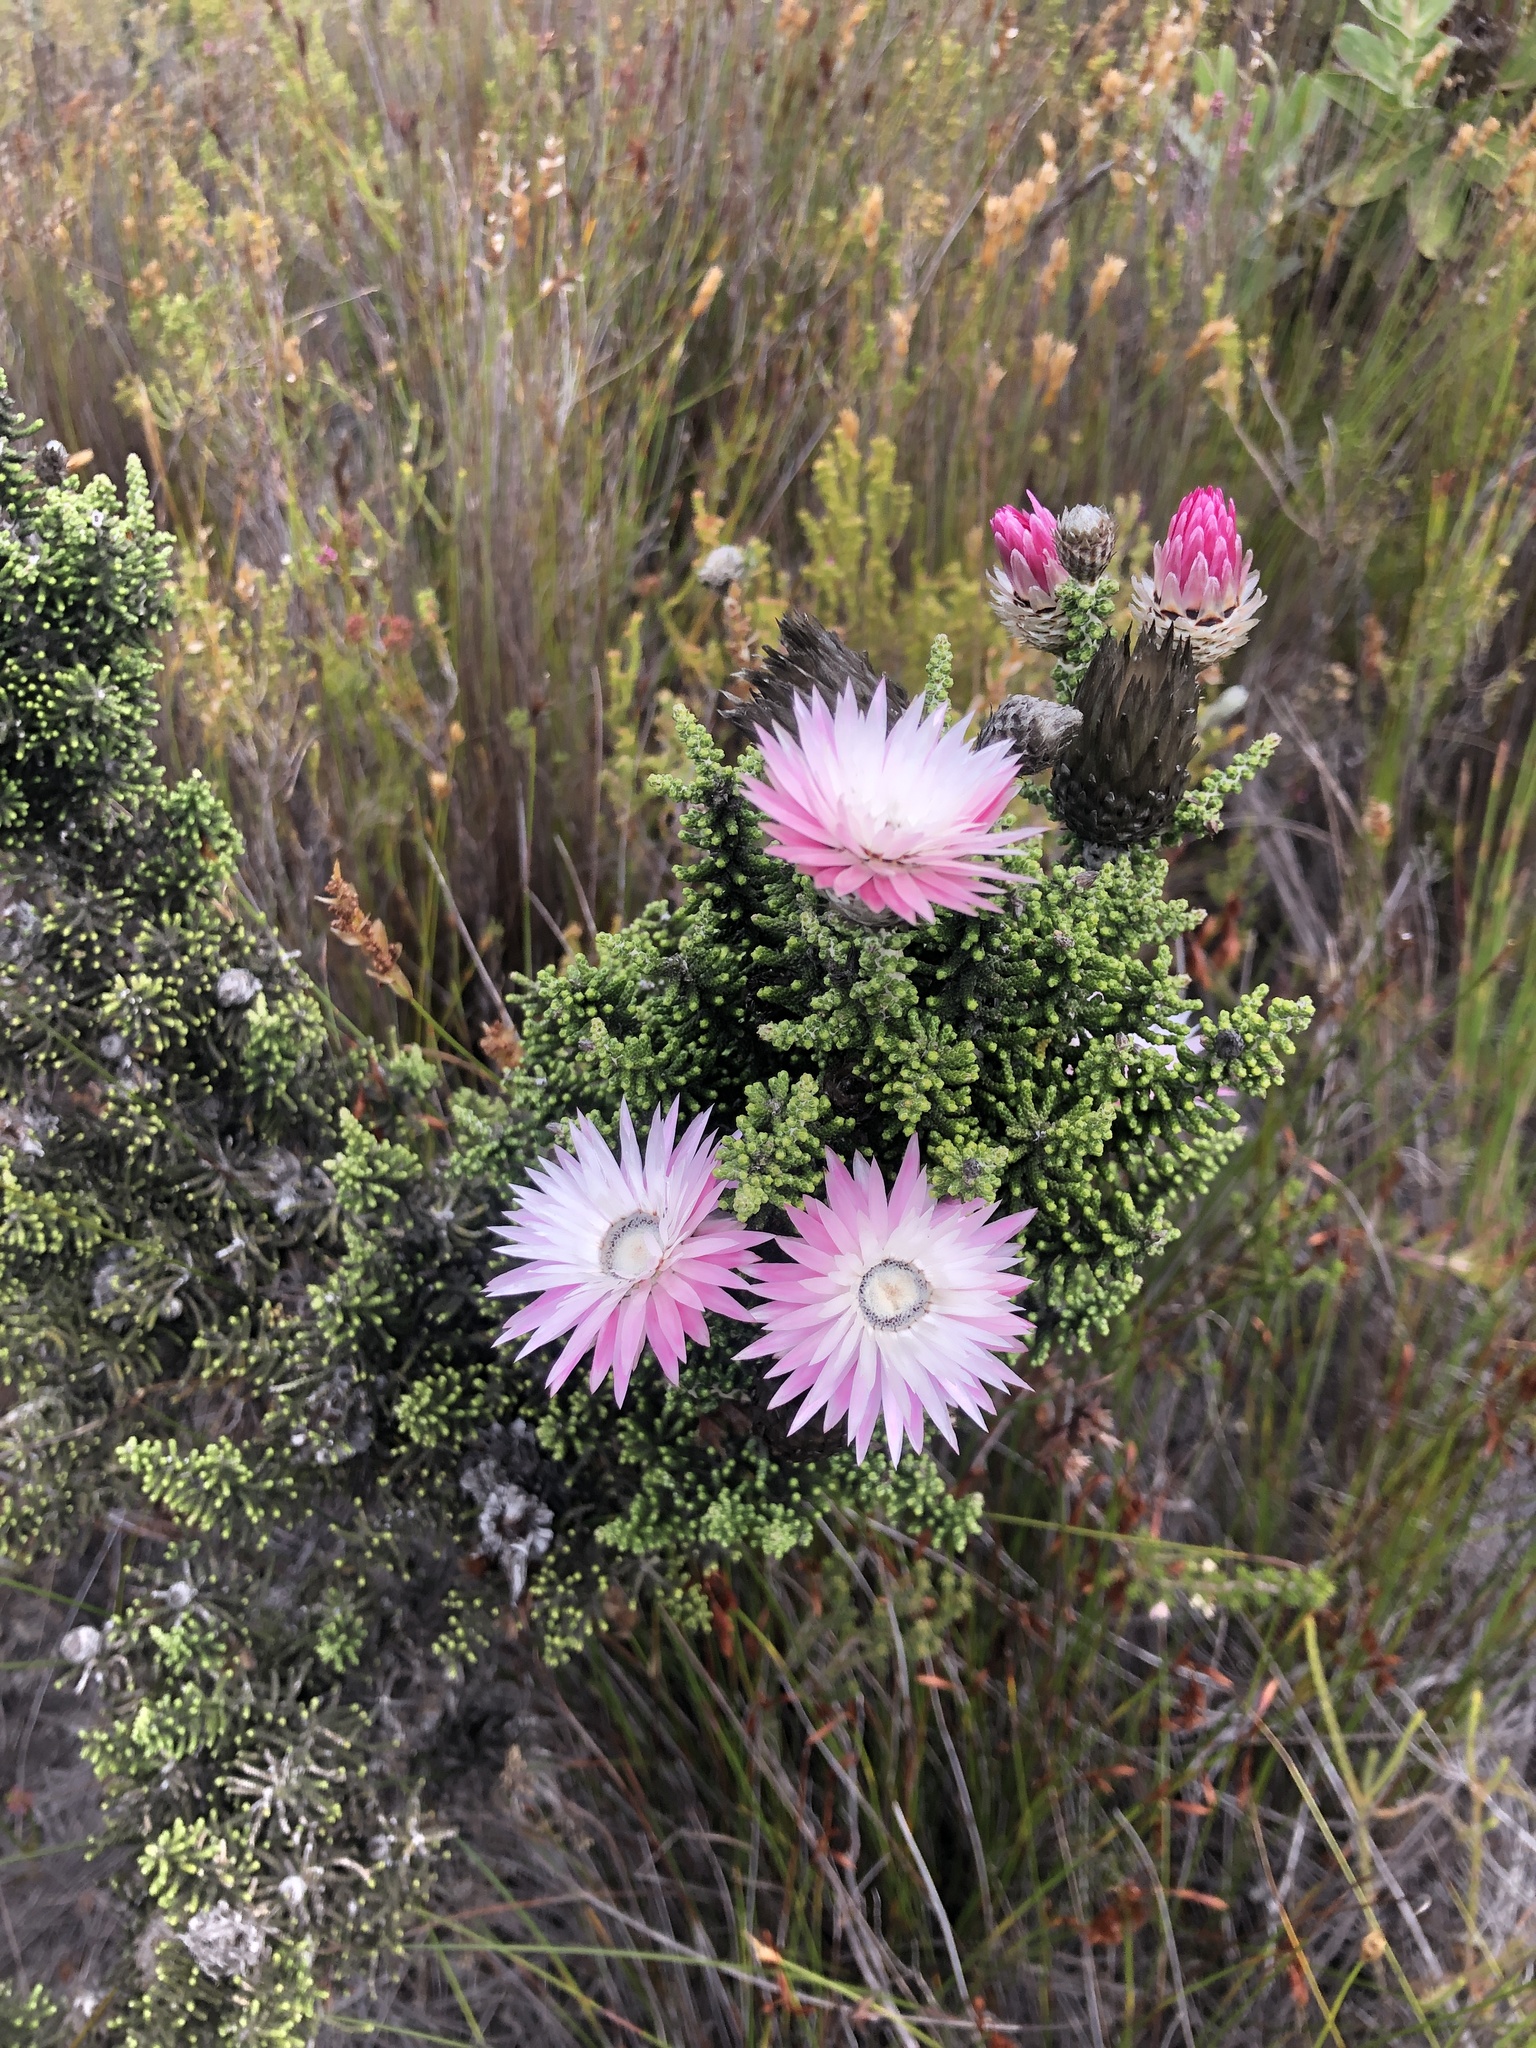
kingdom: Plantae
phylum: Tracheophyta
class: Magnoliopsida
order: Asterales
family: Asteraceae
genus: Phaenocoma
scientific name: Phaenocoma prolifera
